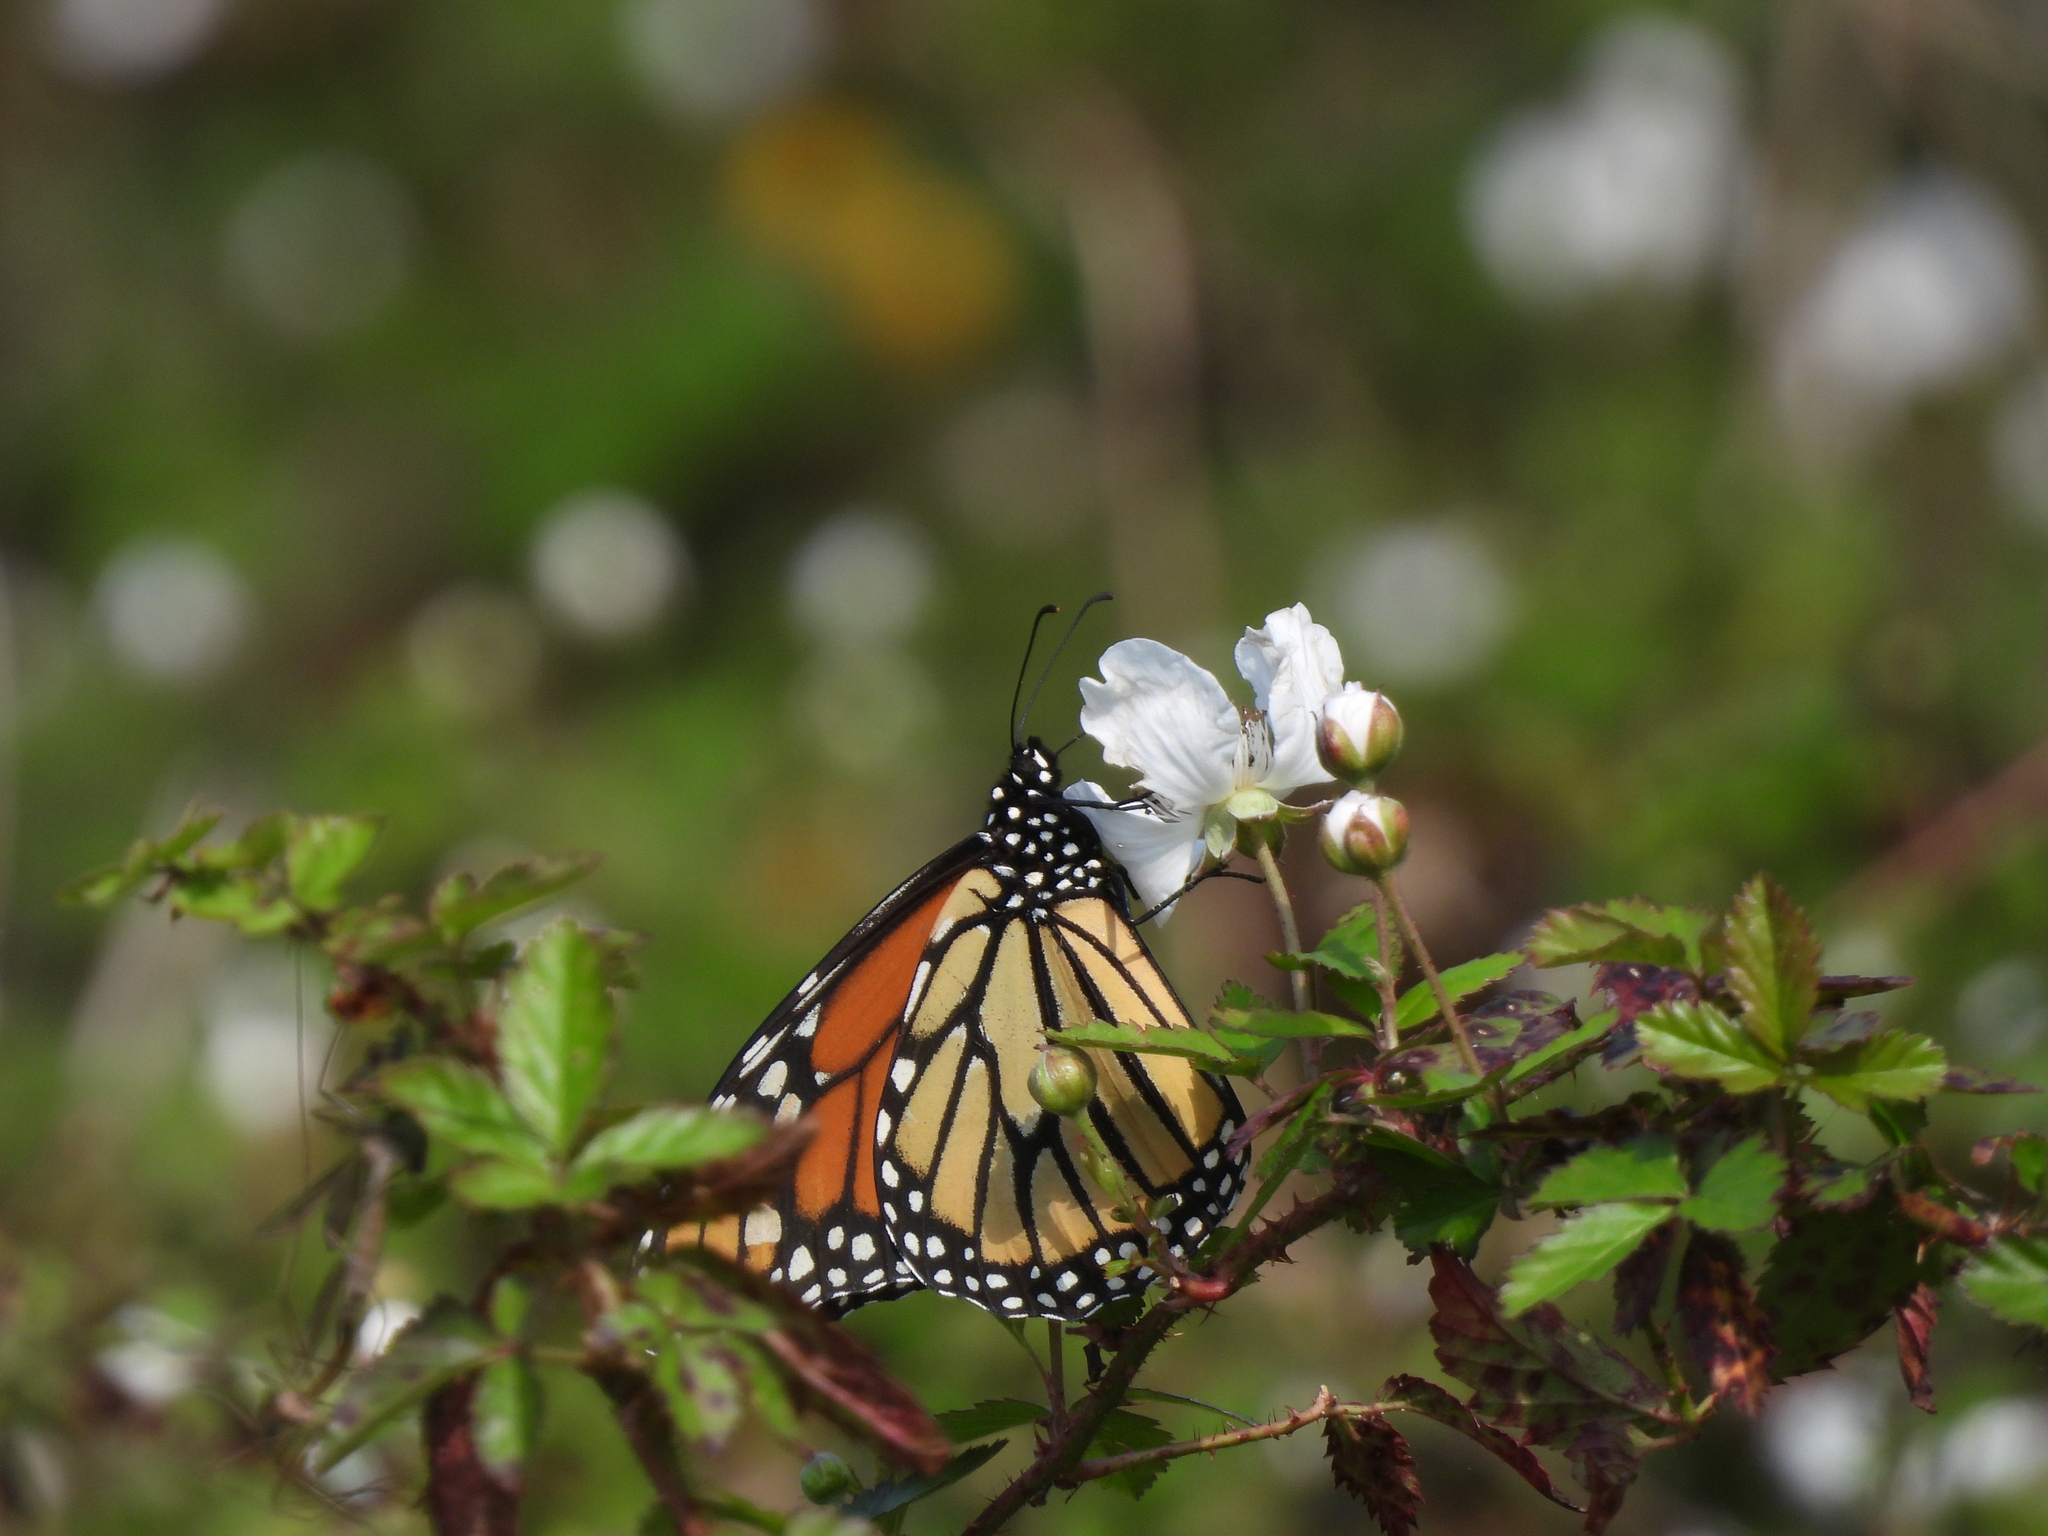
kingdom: Animalia
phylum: Arthropoda
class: Insecta
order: Lepidoptera
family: Nymphalidae
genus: Danaus
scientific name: Danaus plexippus
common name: Monarch
